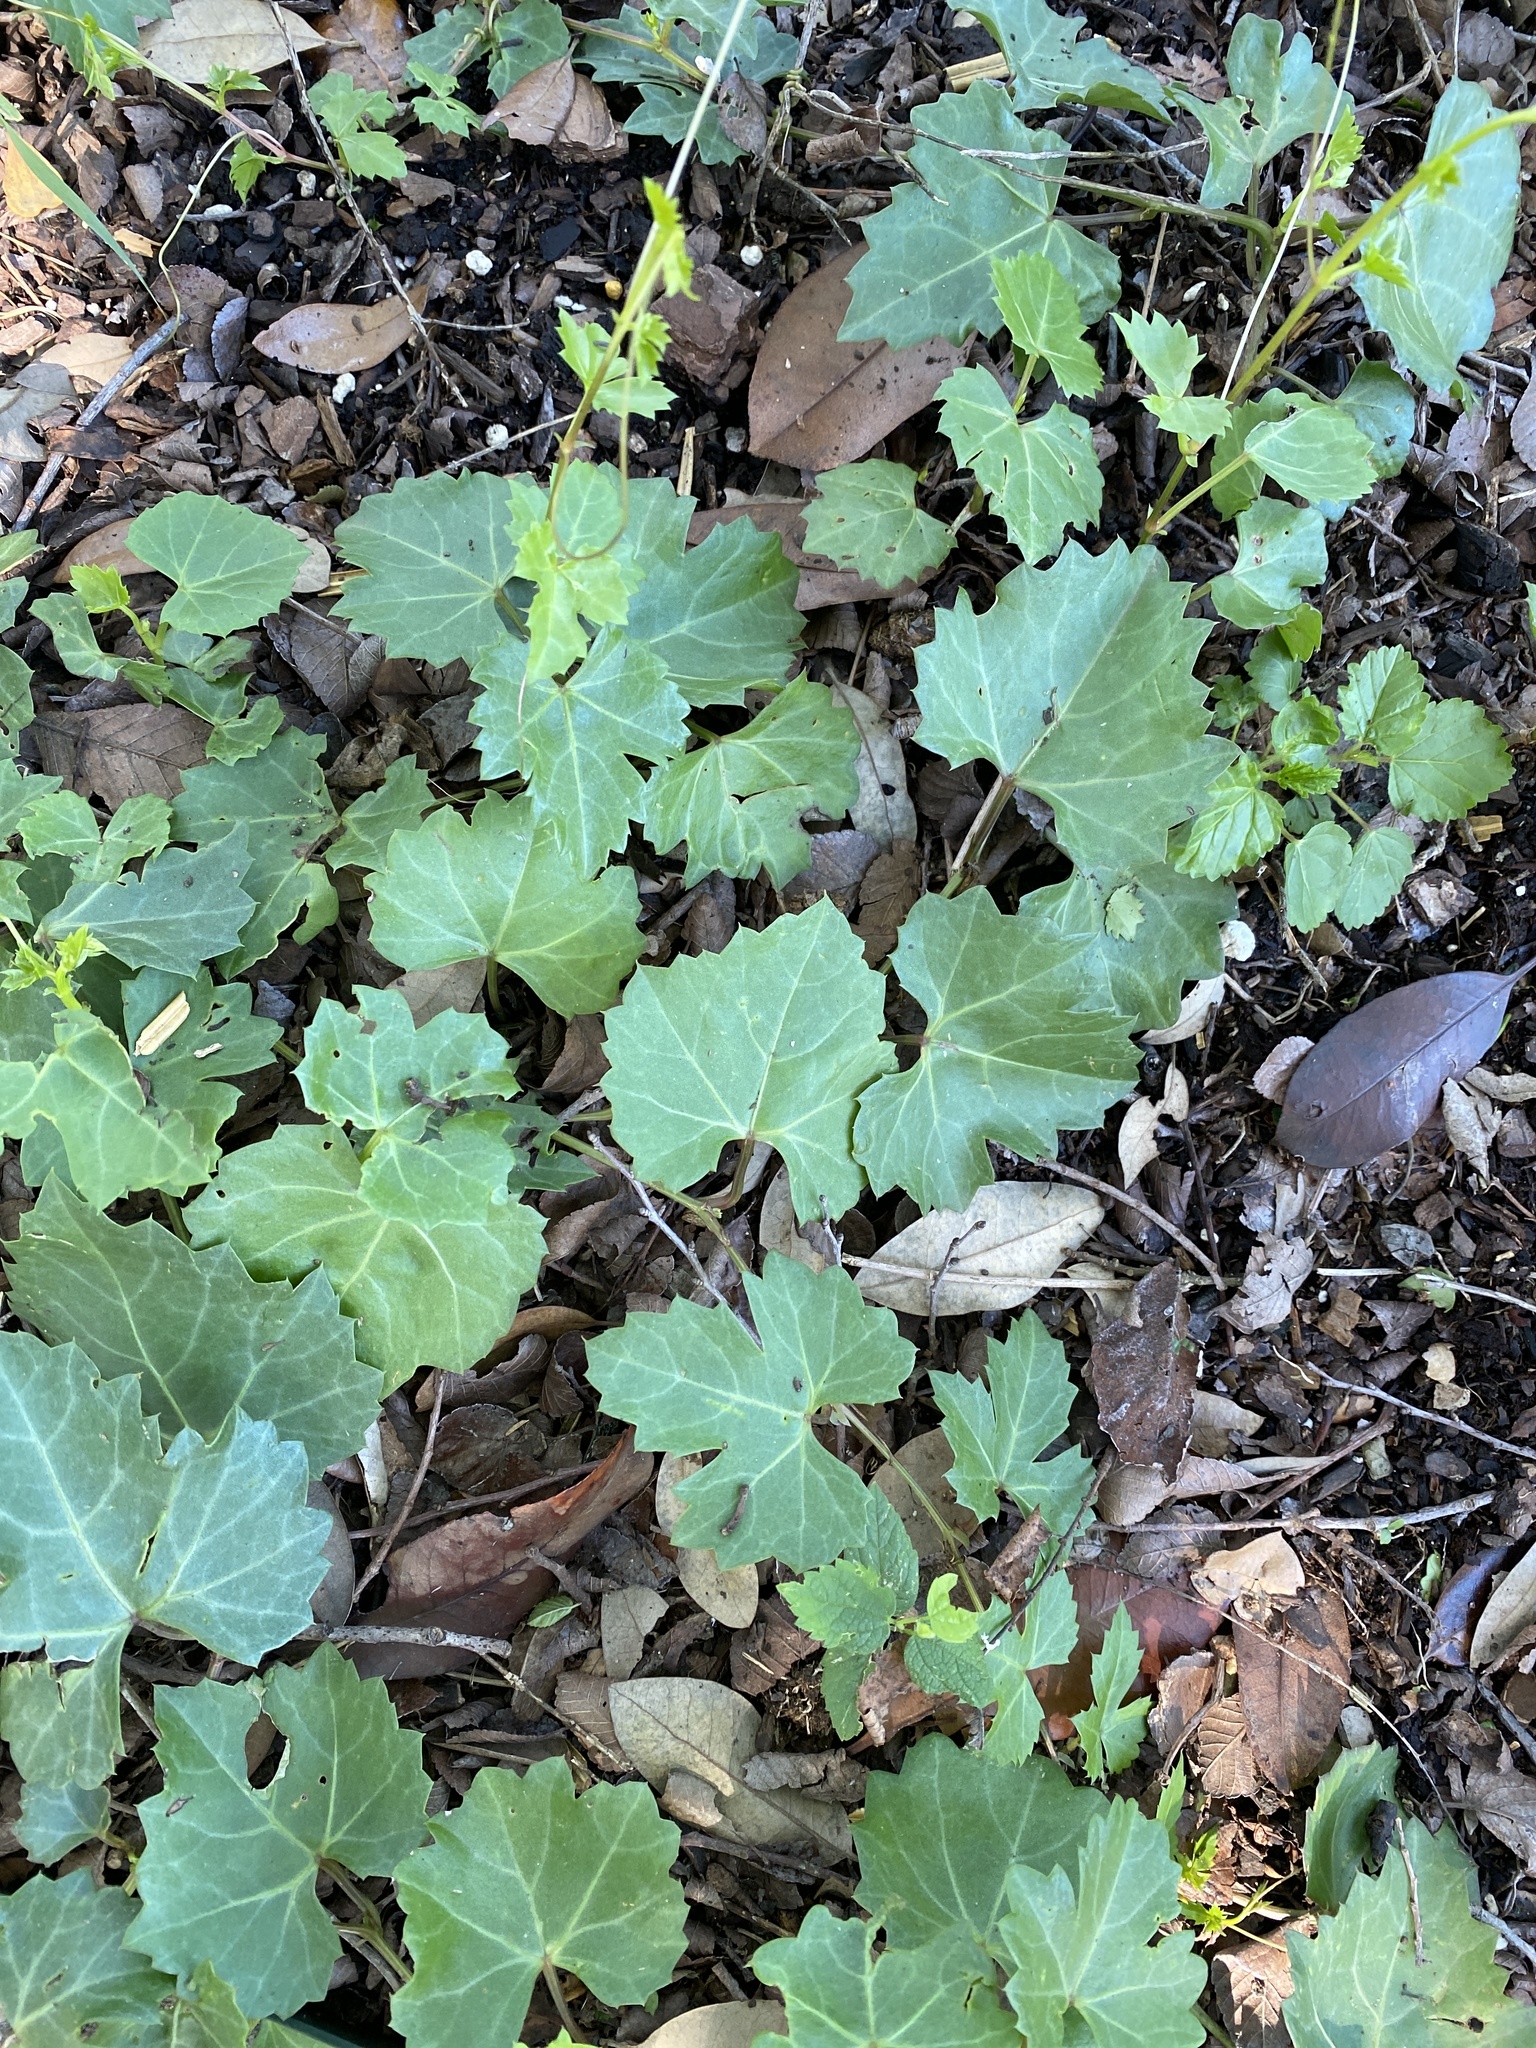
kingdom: Plantae
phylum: Tracheophyta
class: Magnoliopsida
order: Vitales
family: Vitaceae
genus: Cissus
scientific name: Cissus trifoliata
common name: Vine-sorrel
